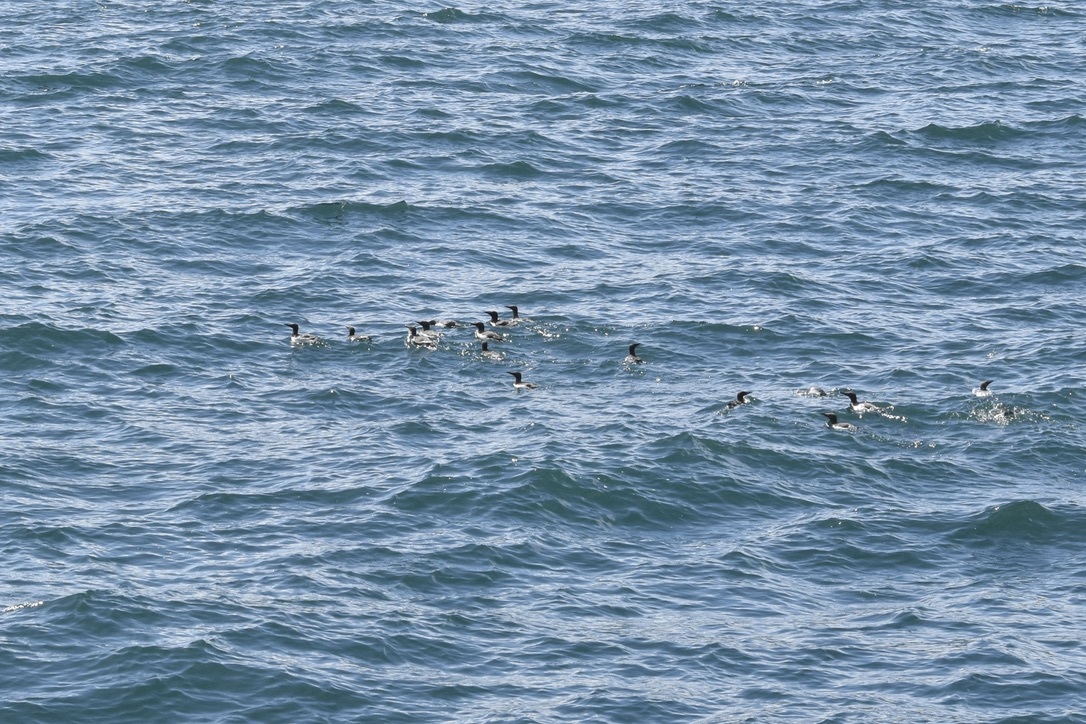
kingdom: Animalia
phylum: Chordata
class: Aves
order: Charadriiformes
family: Alcidae
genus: Uria
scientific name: Uria aalge
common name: Common murre
